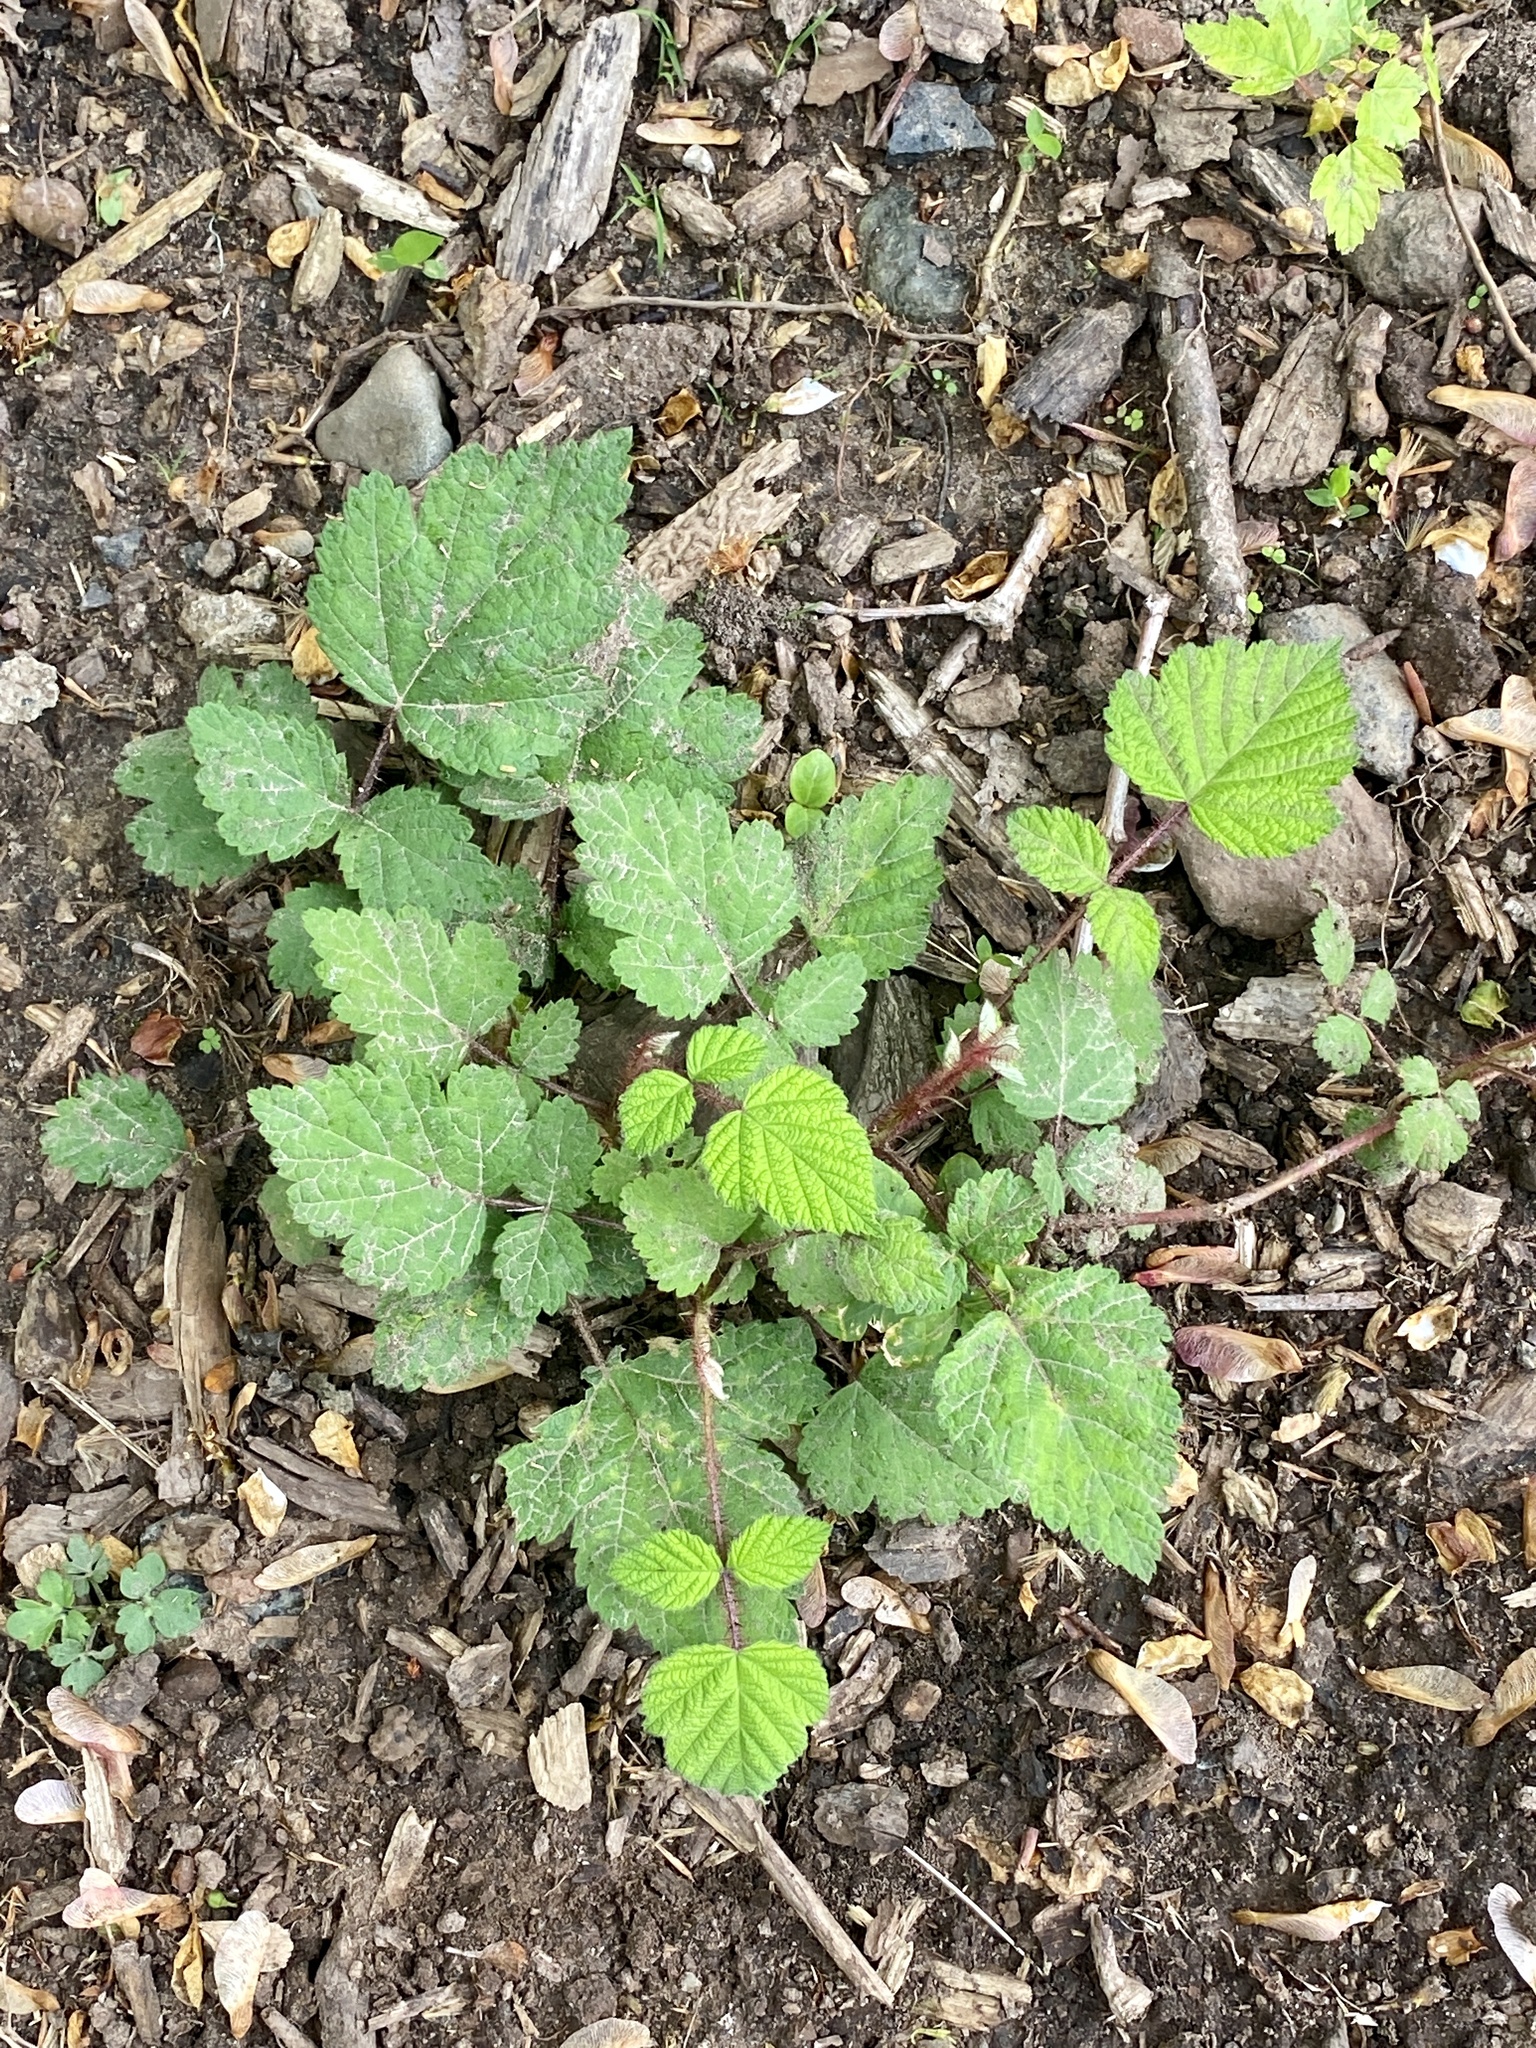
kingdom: Plantae
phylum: Tracheophyta
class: Magnoliopsida
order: Rosales
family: Rosaceae
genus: Rubus
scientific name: Rubus phoenicolasius
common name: Japanese wineberry
